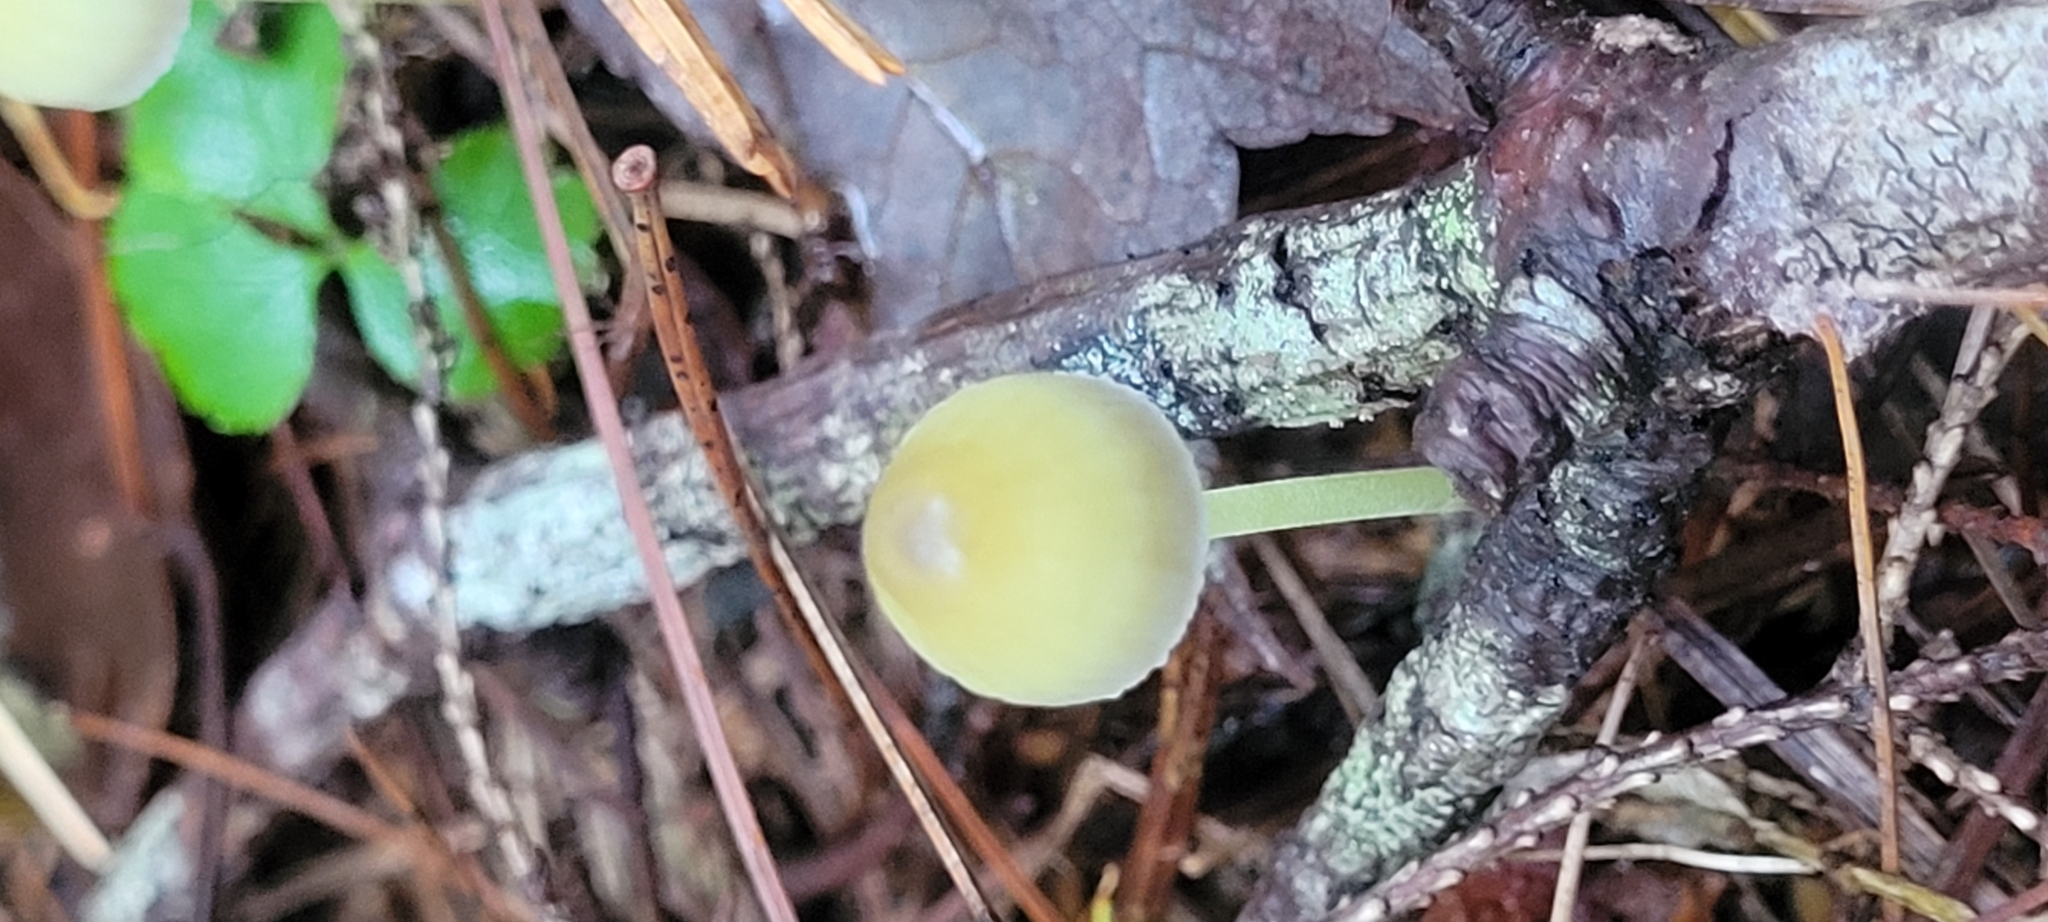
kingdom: Fungi
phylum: Basidiomycota
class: Agaricomycetes
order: Agaricales
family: Mycenaceae
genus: Mycena
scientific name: Mycena epipterygia
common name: Yellowleg bonnet
